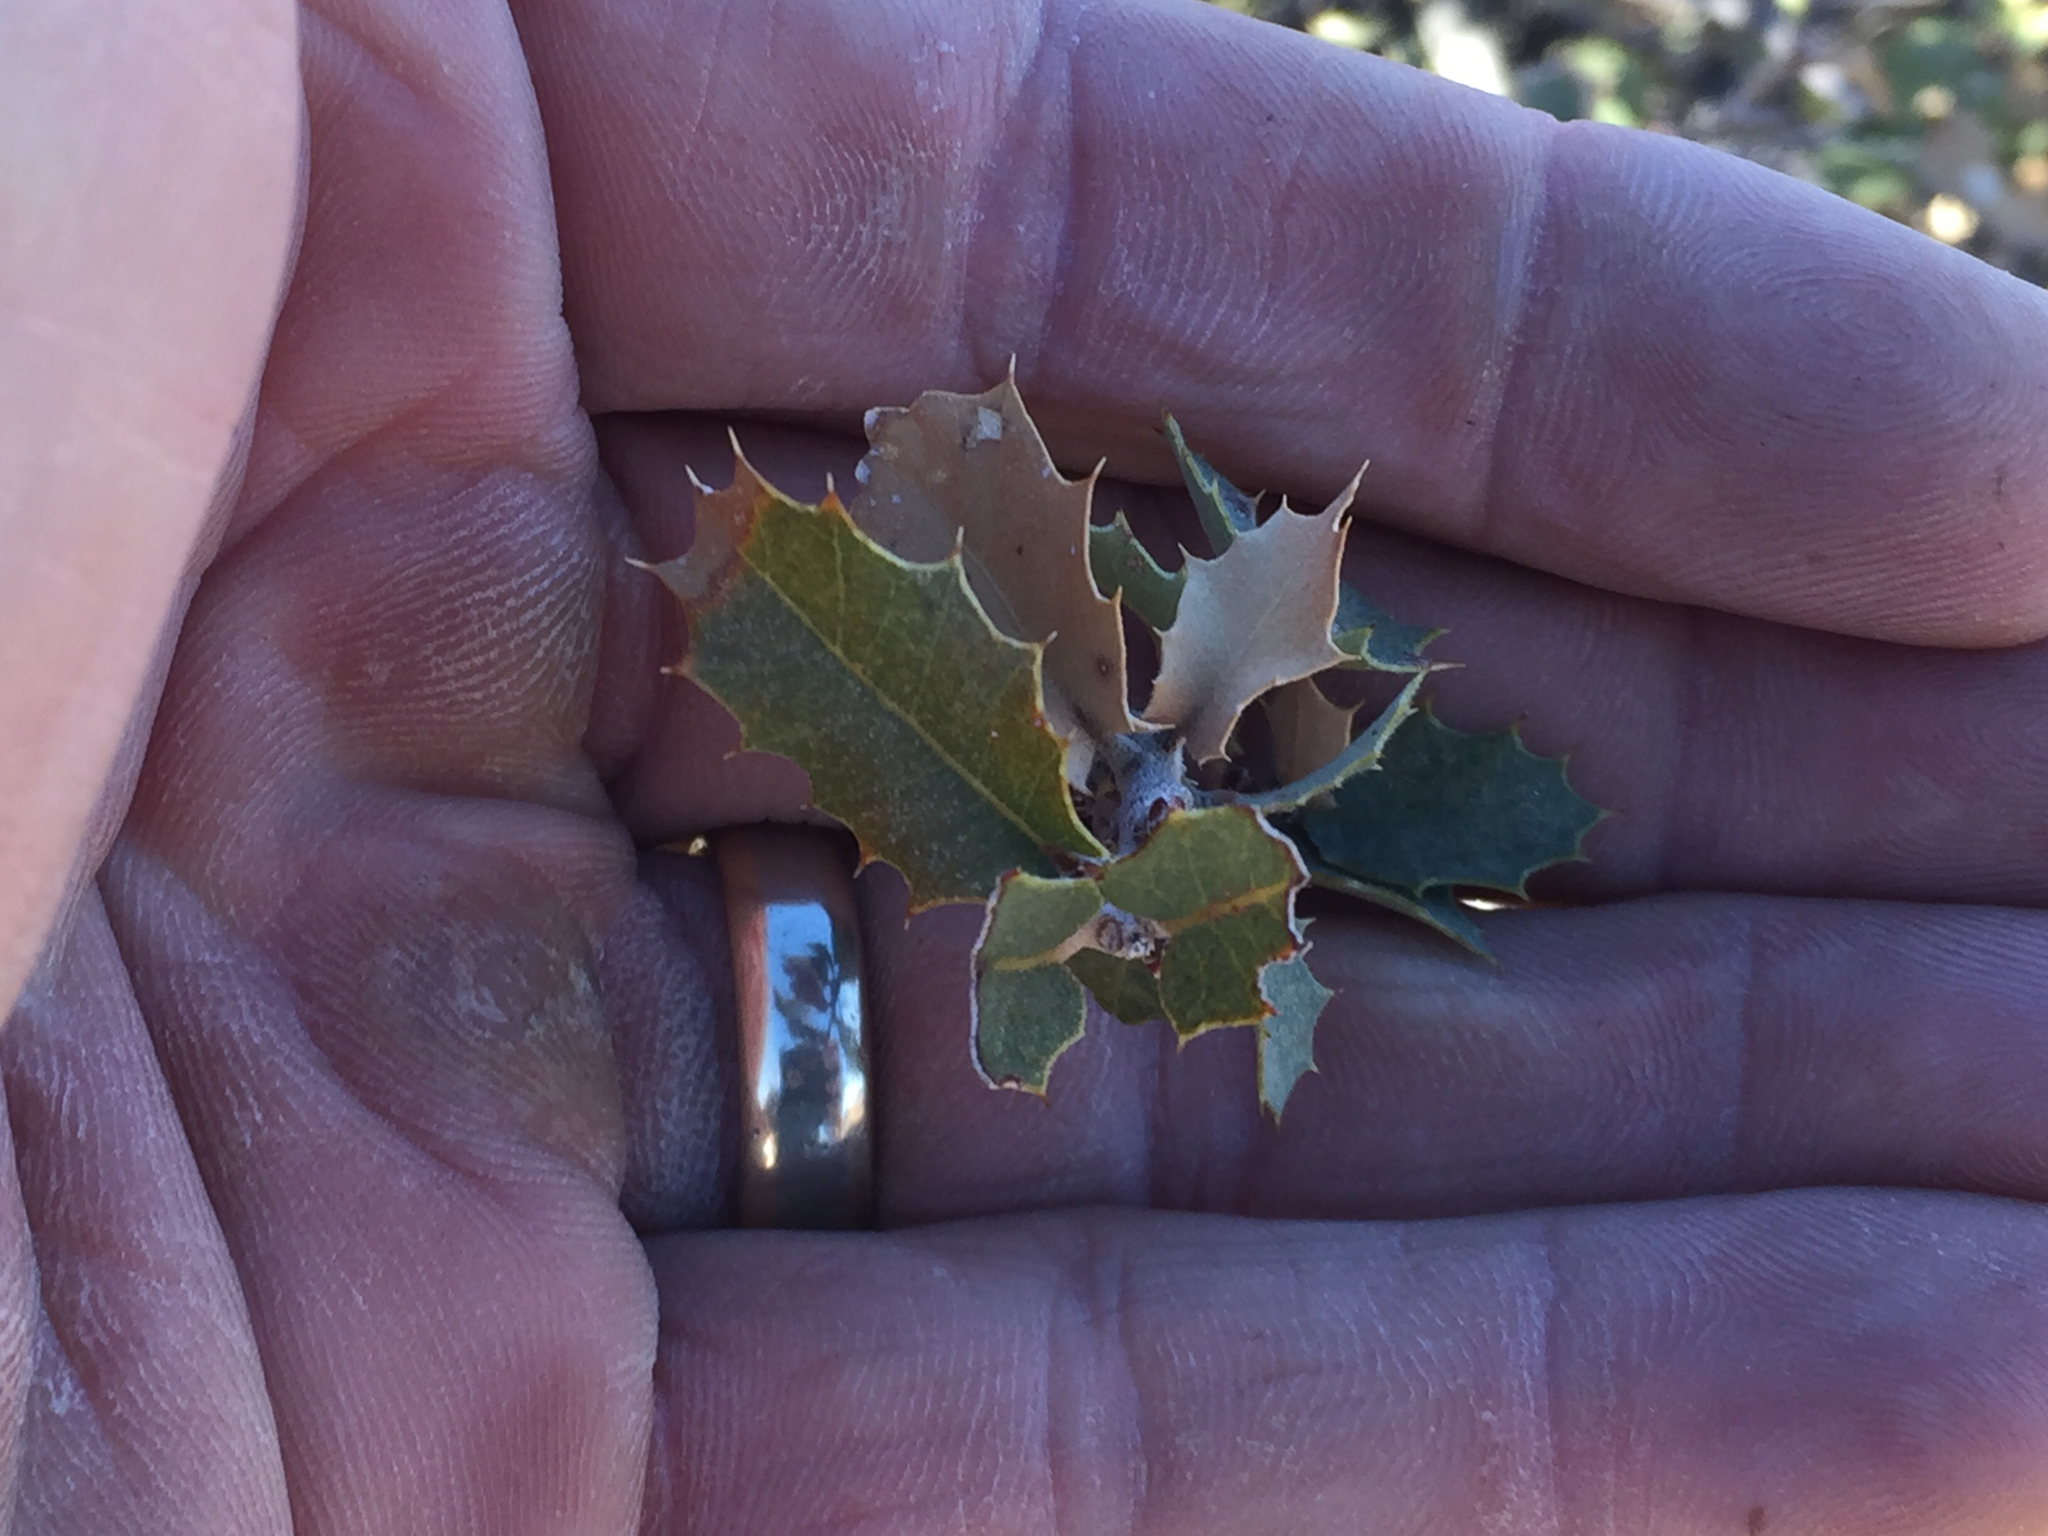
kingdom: Plantae
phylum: Tracheophyta
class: Magnoliopsida
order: Fagales
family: Fagaceae
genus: Quercus
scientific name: Quercus turbinella
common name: Sonoran scrub oak
